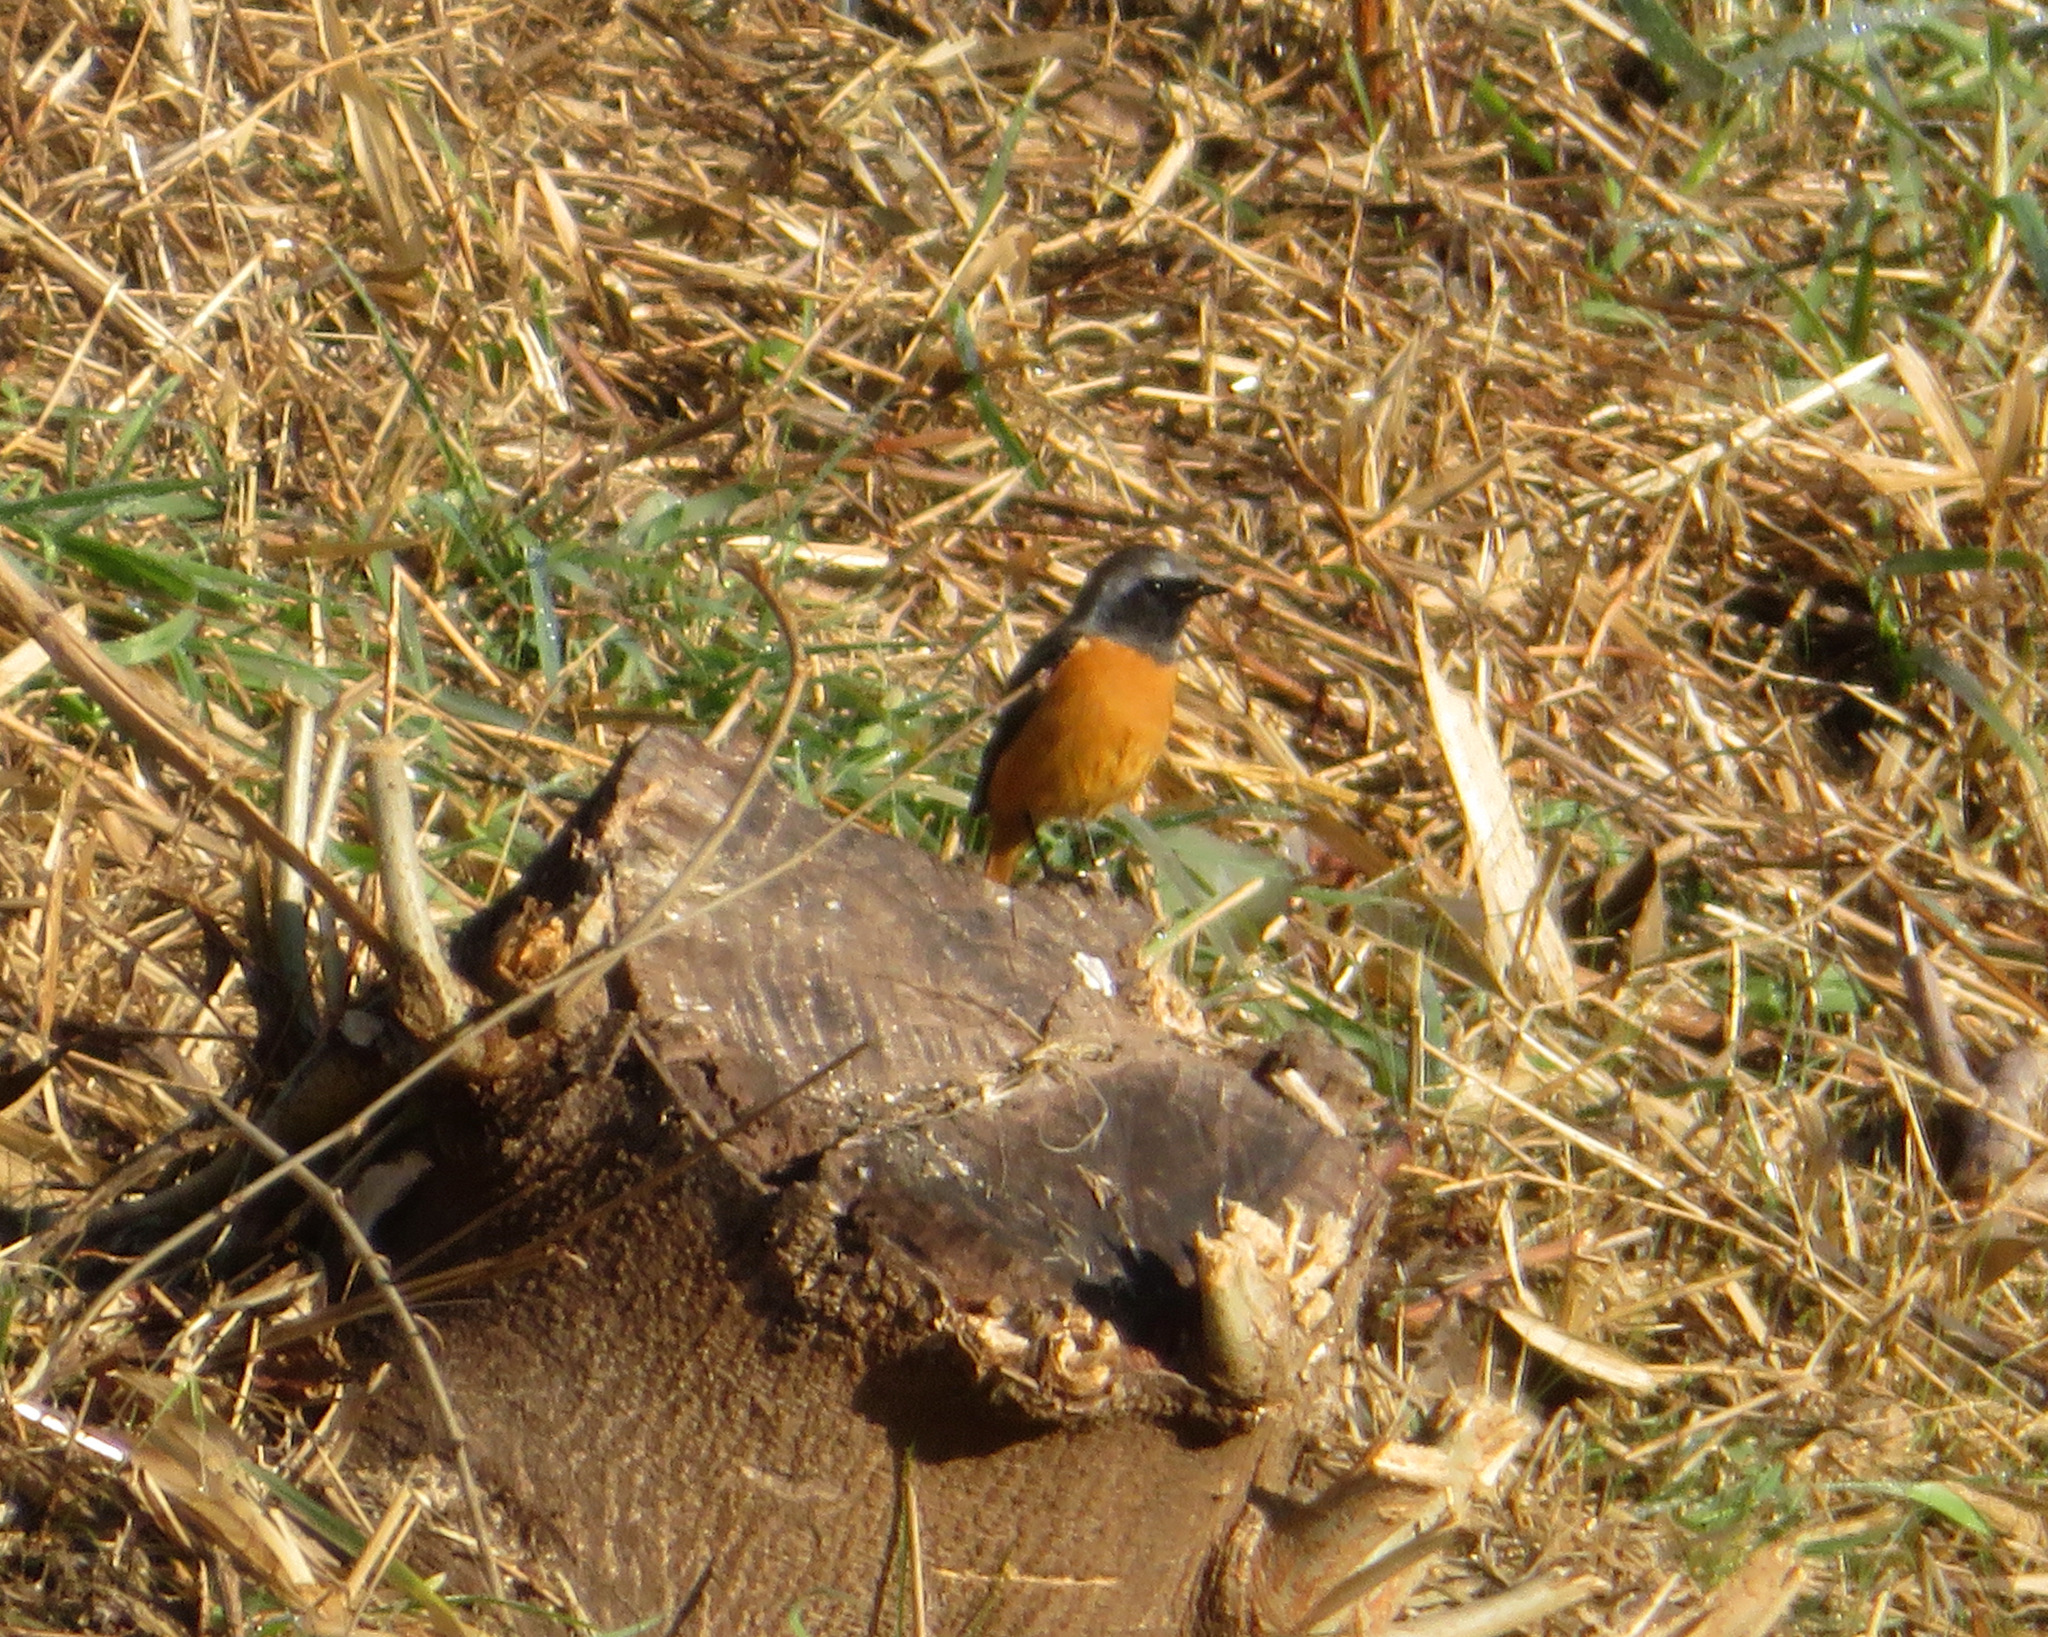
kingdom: Animalia
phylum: Chordata
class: Aves
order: Passeriformes
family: Muscicapidae
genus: Phoenicurus
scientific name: Phoenicurus auroreus
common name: Daurian redstart
